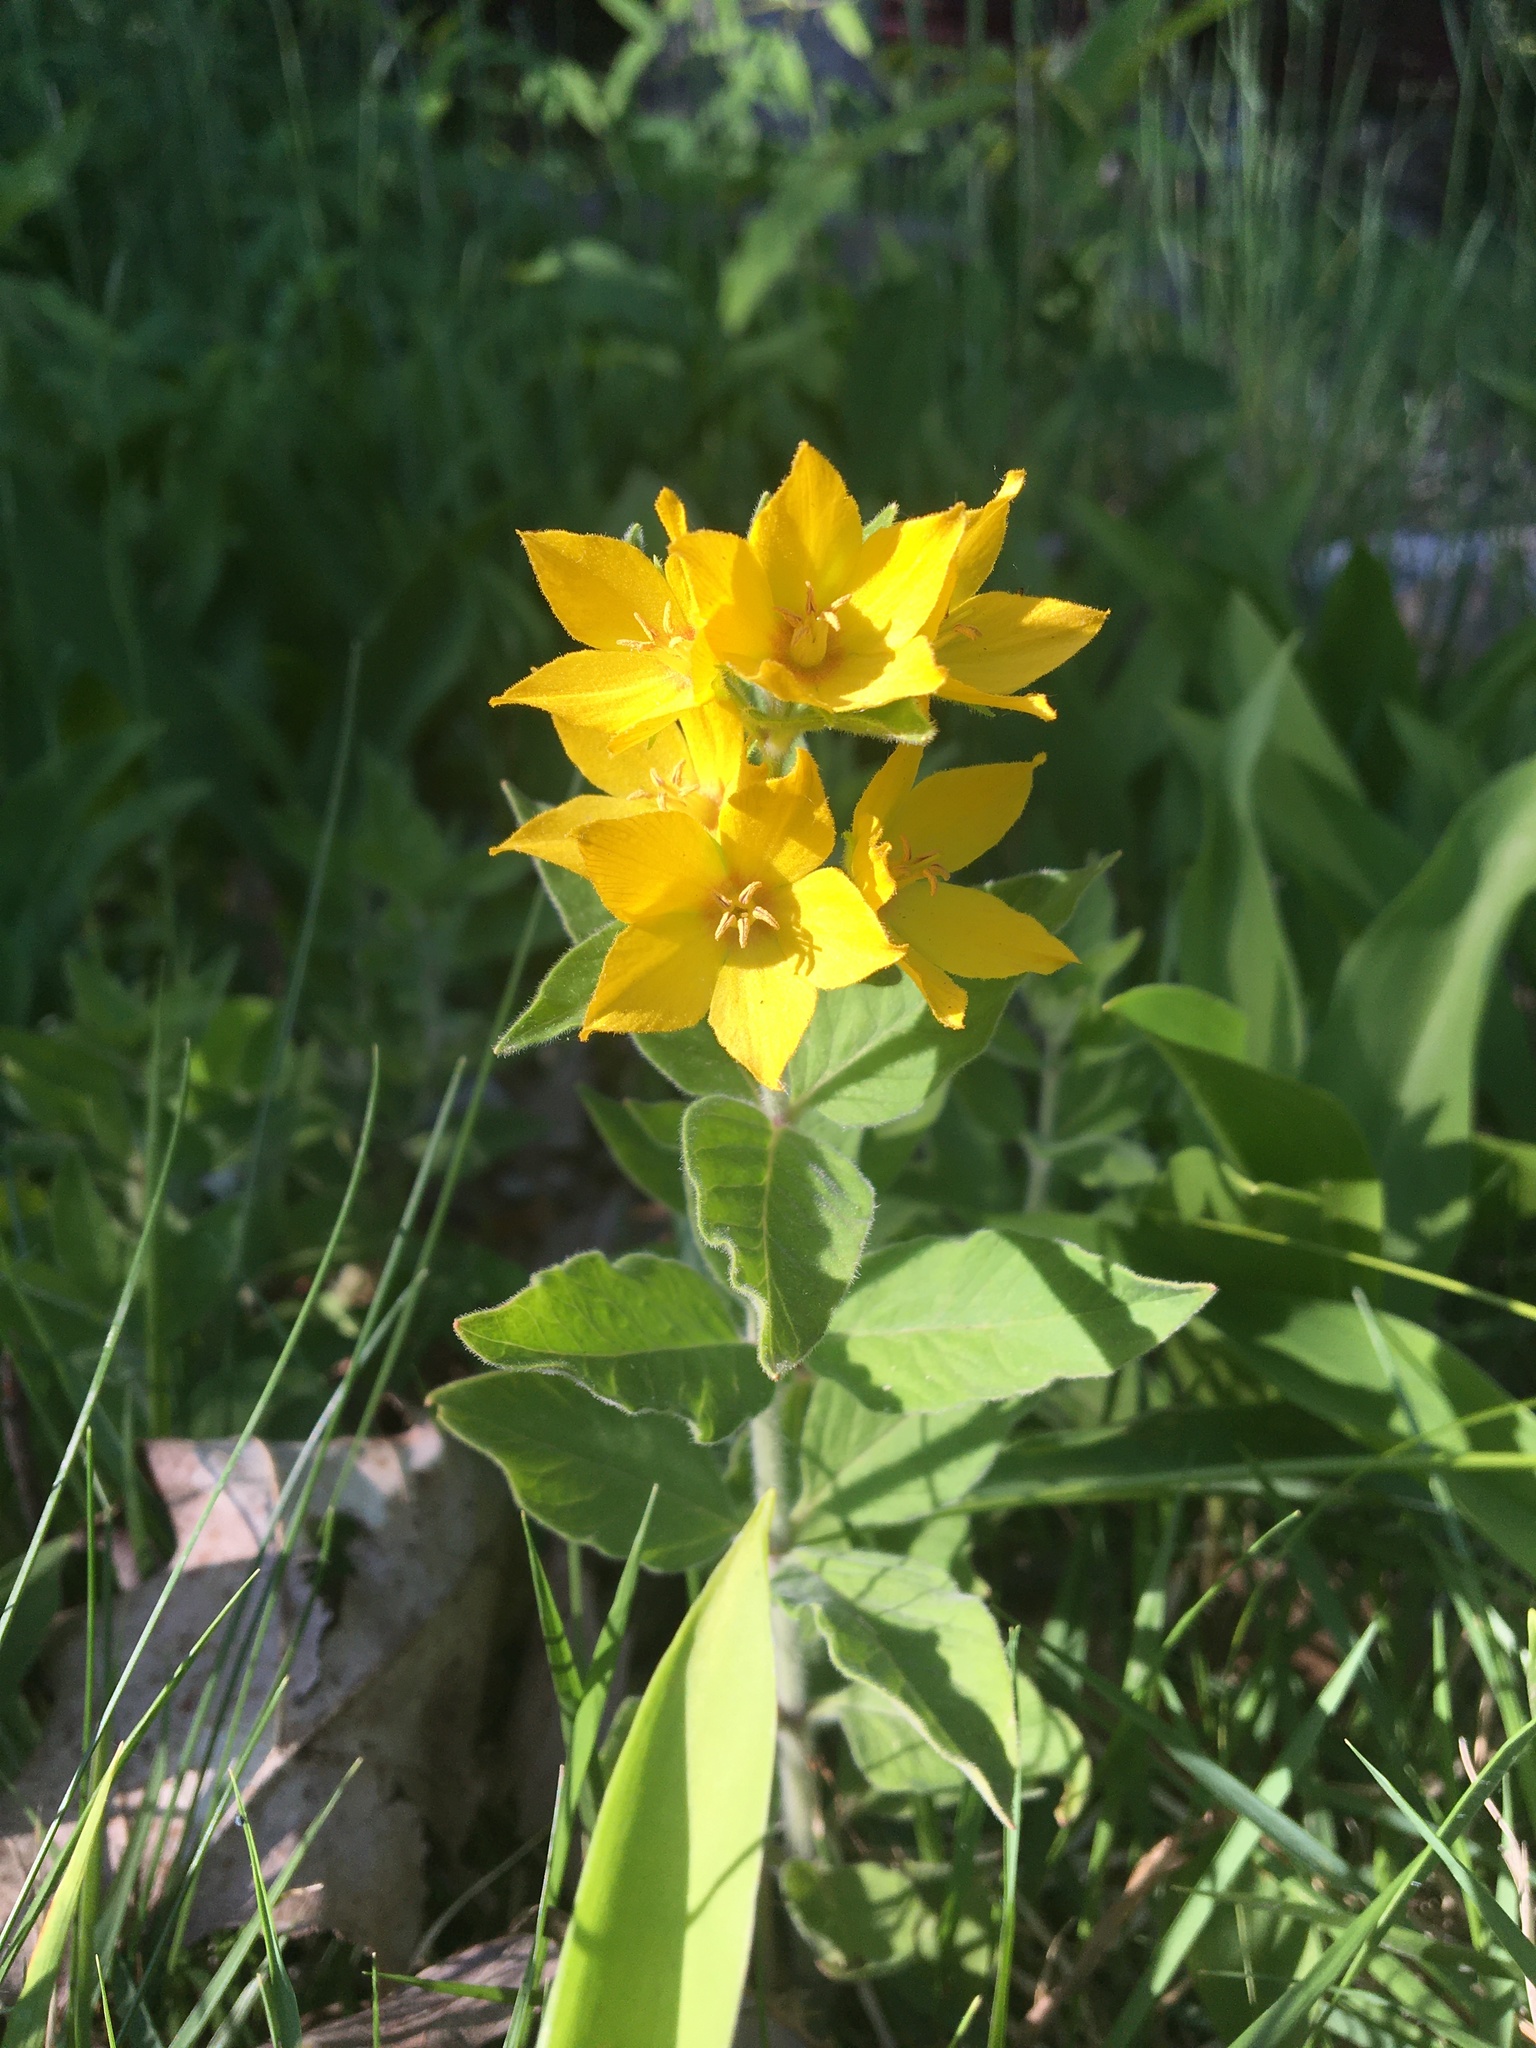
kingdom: Plantae
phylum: Tracheophyta
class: Magnoliopsida
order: Ericales
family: Primulaceae
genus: Lysimachia
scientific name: Lysimachia punctata
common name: Dotted loosestrife
